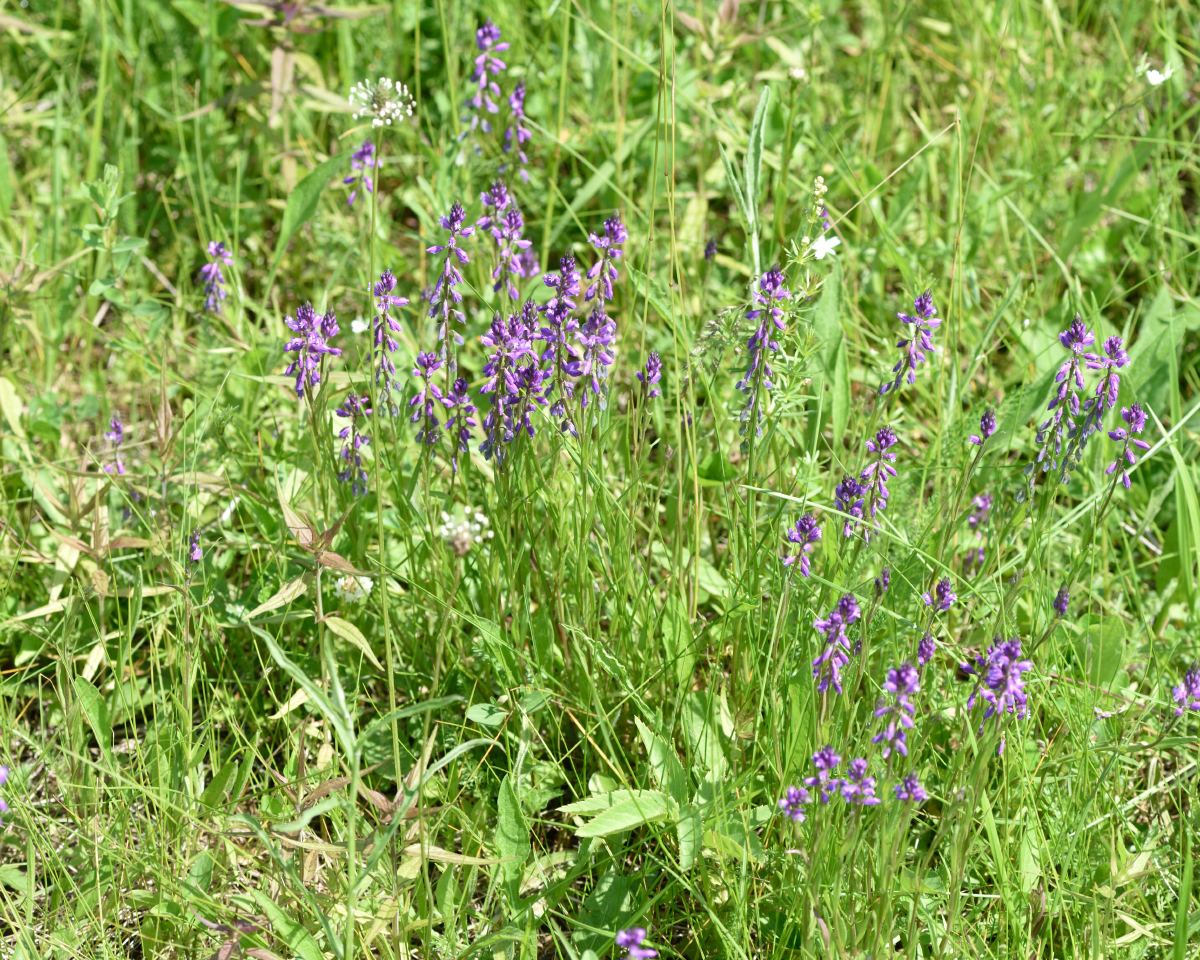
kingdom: Plantae
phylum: Tracheophyta
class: Magnoliopsida
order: Fabales
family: Polygalaceae
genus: Polygala
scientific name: Polygala comosa
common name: Tufted milkwort
